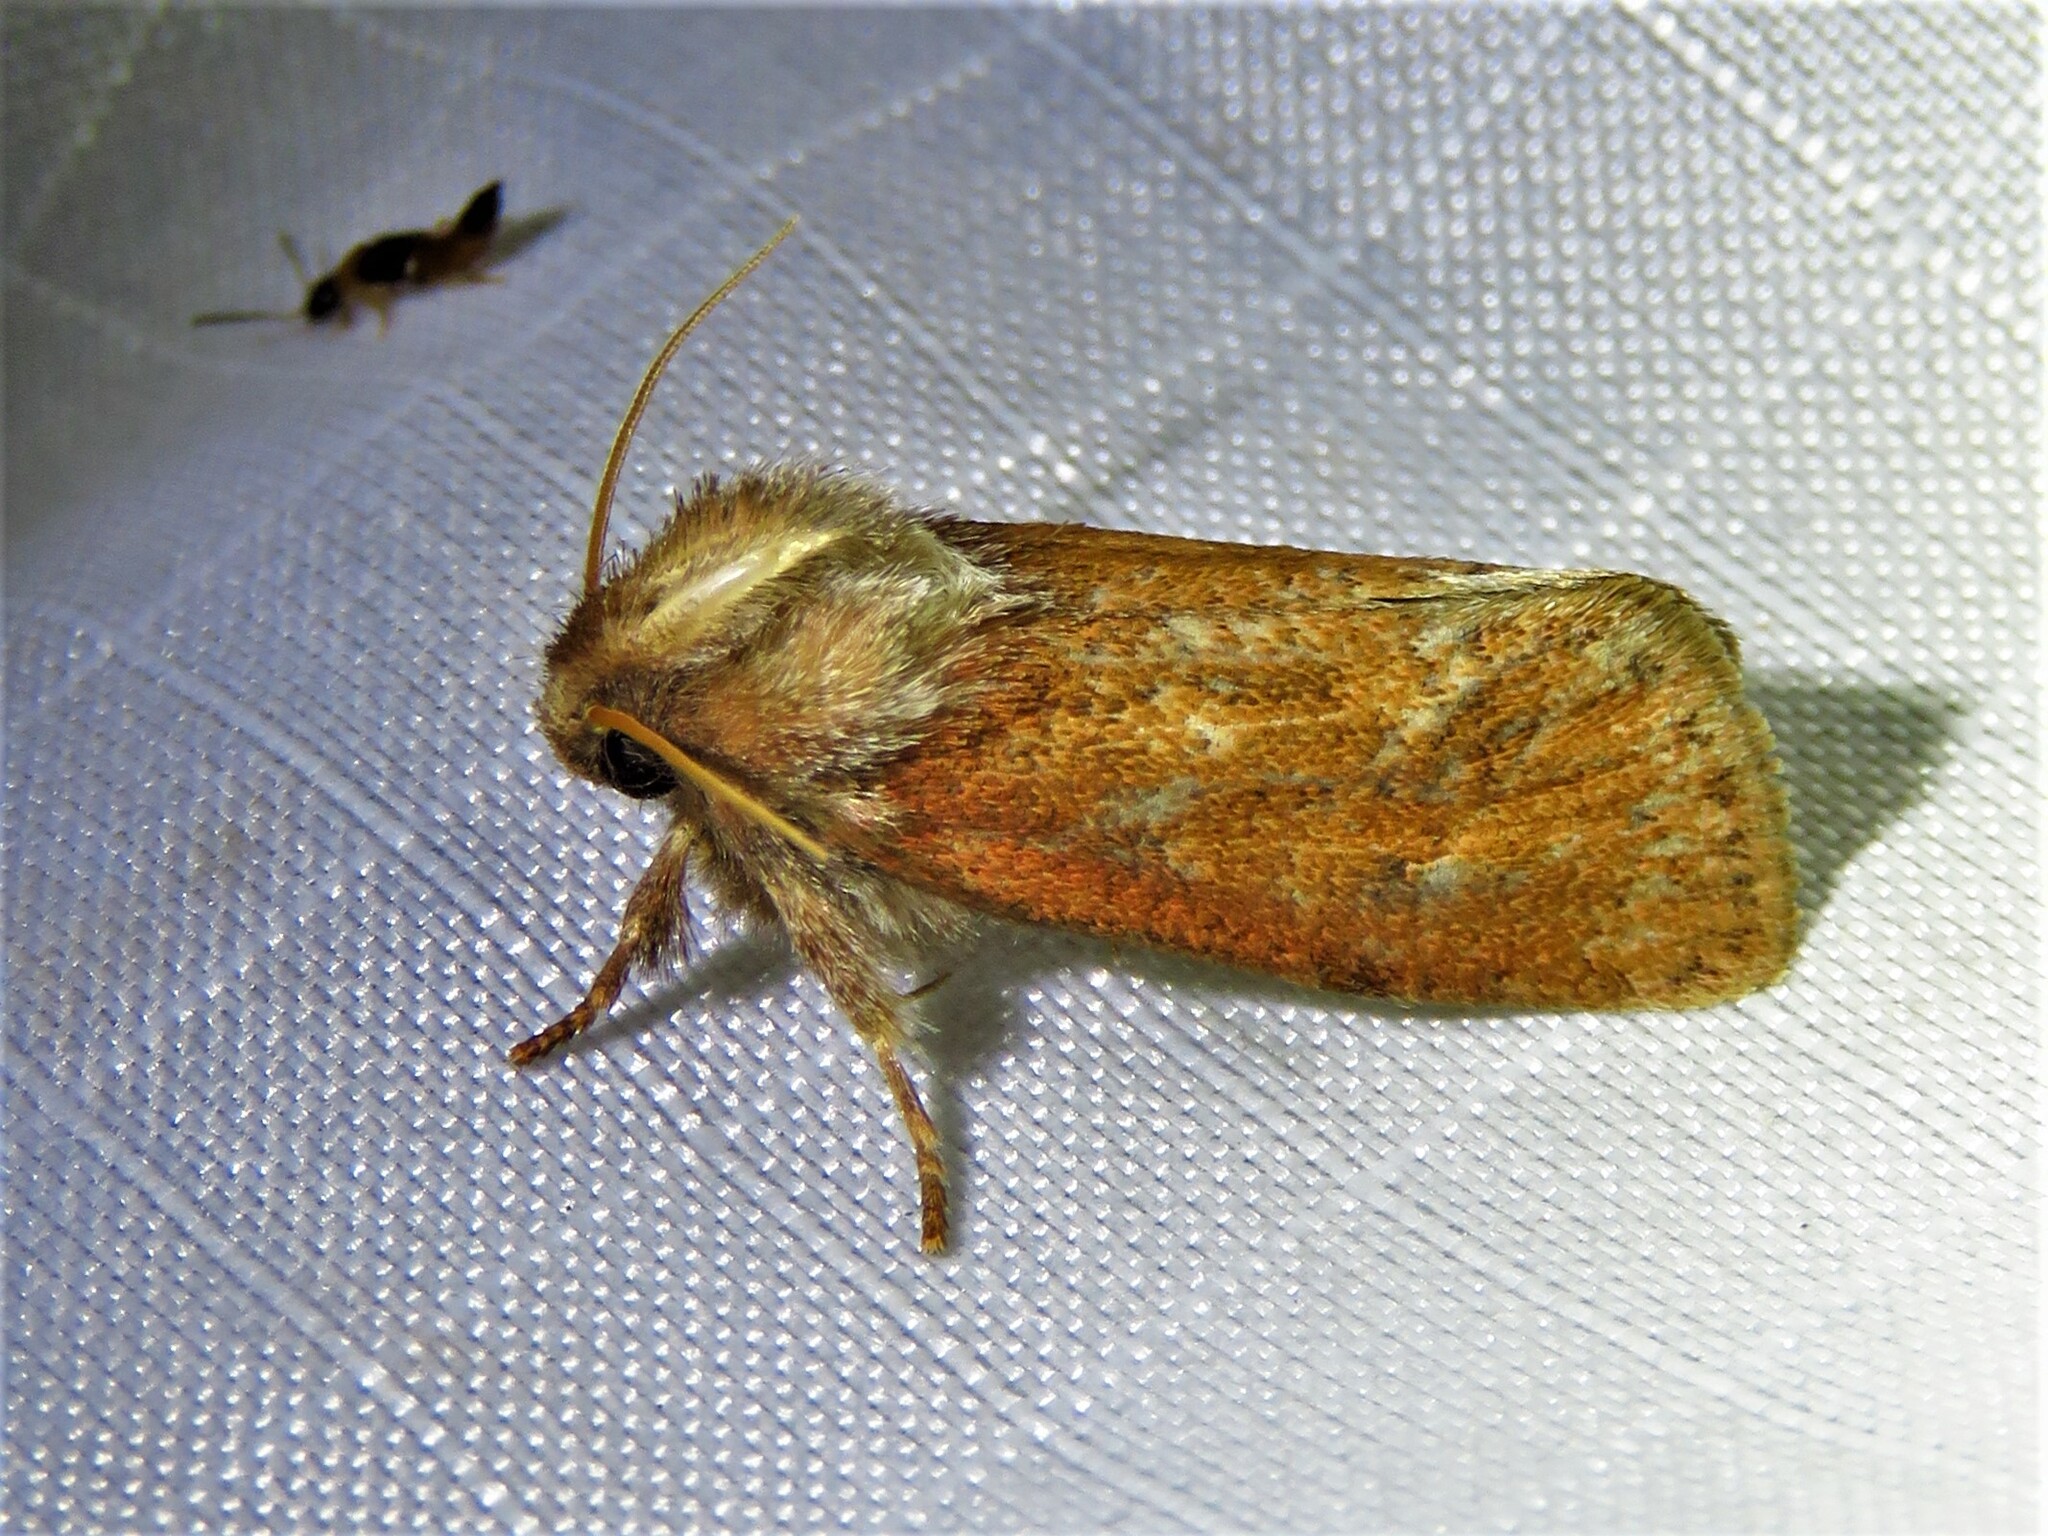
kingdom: Animalia
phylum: Arthropoda
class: Insecta
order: Lepidoptera
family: Tineidae
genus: Acrolophus
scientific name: Acrolophus plumifrontella
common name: Eastern grass tubeworm moth
